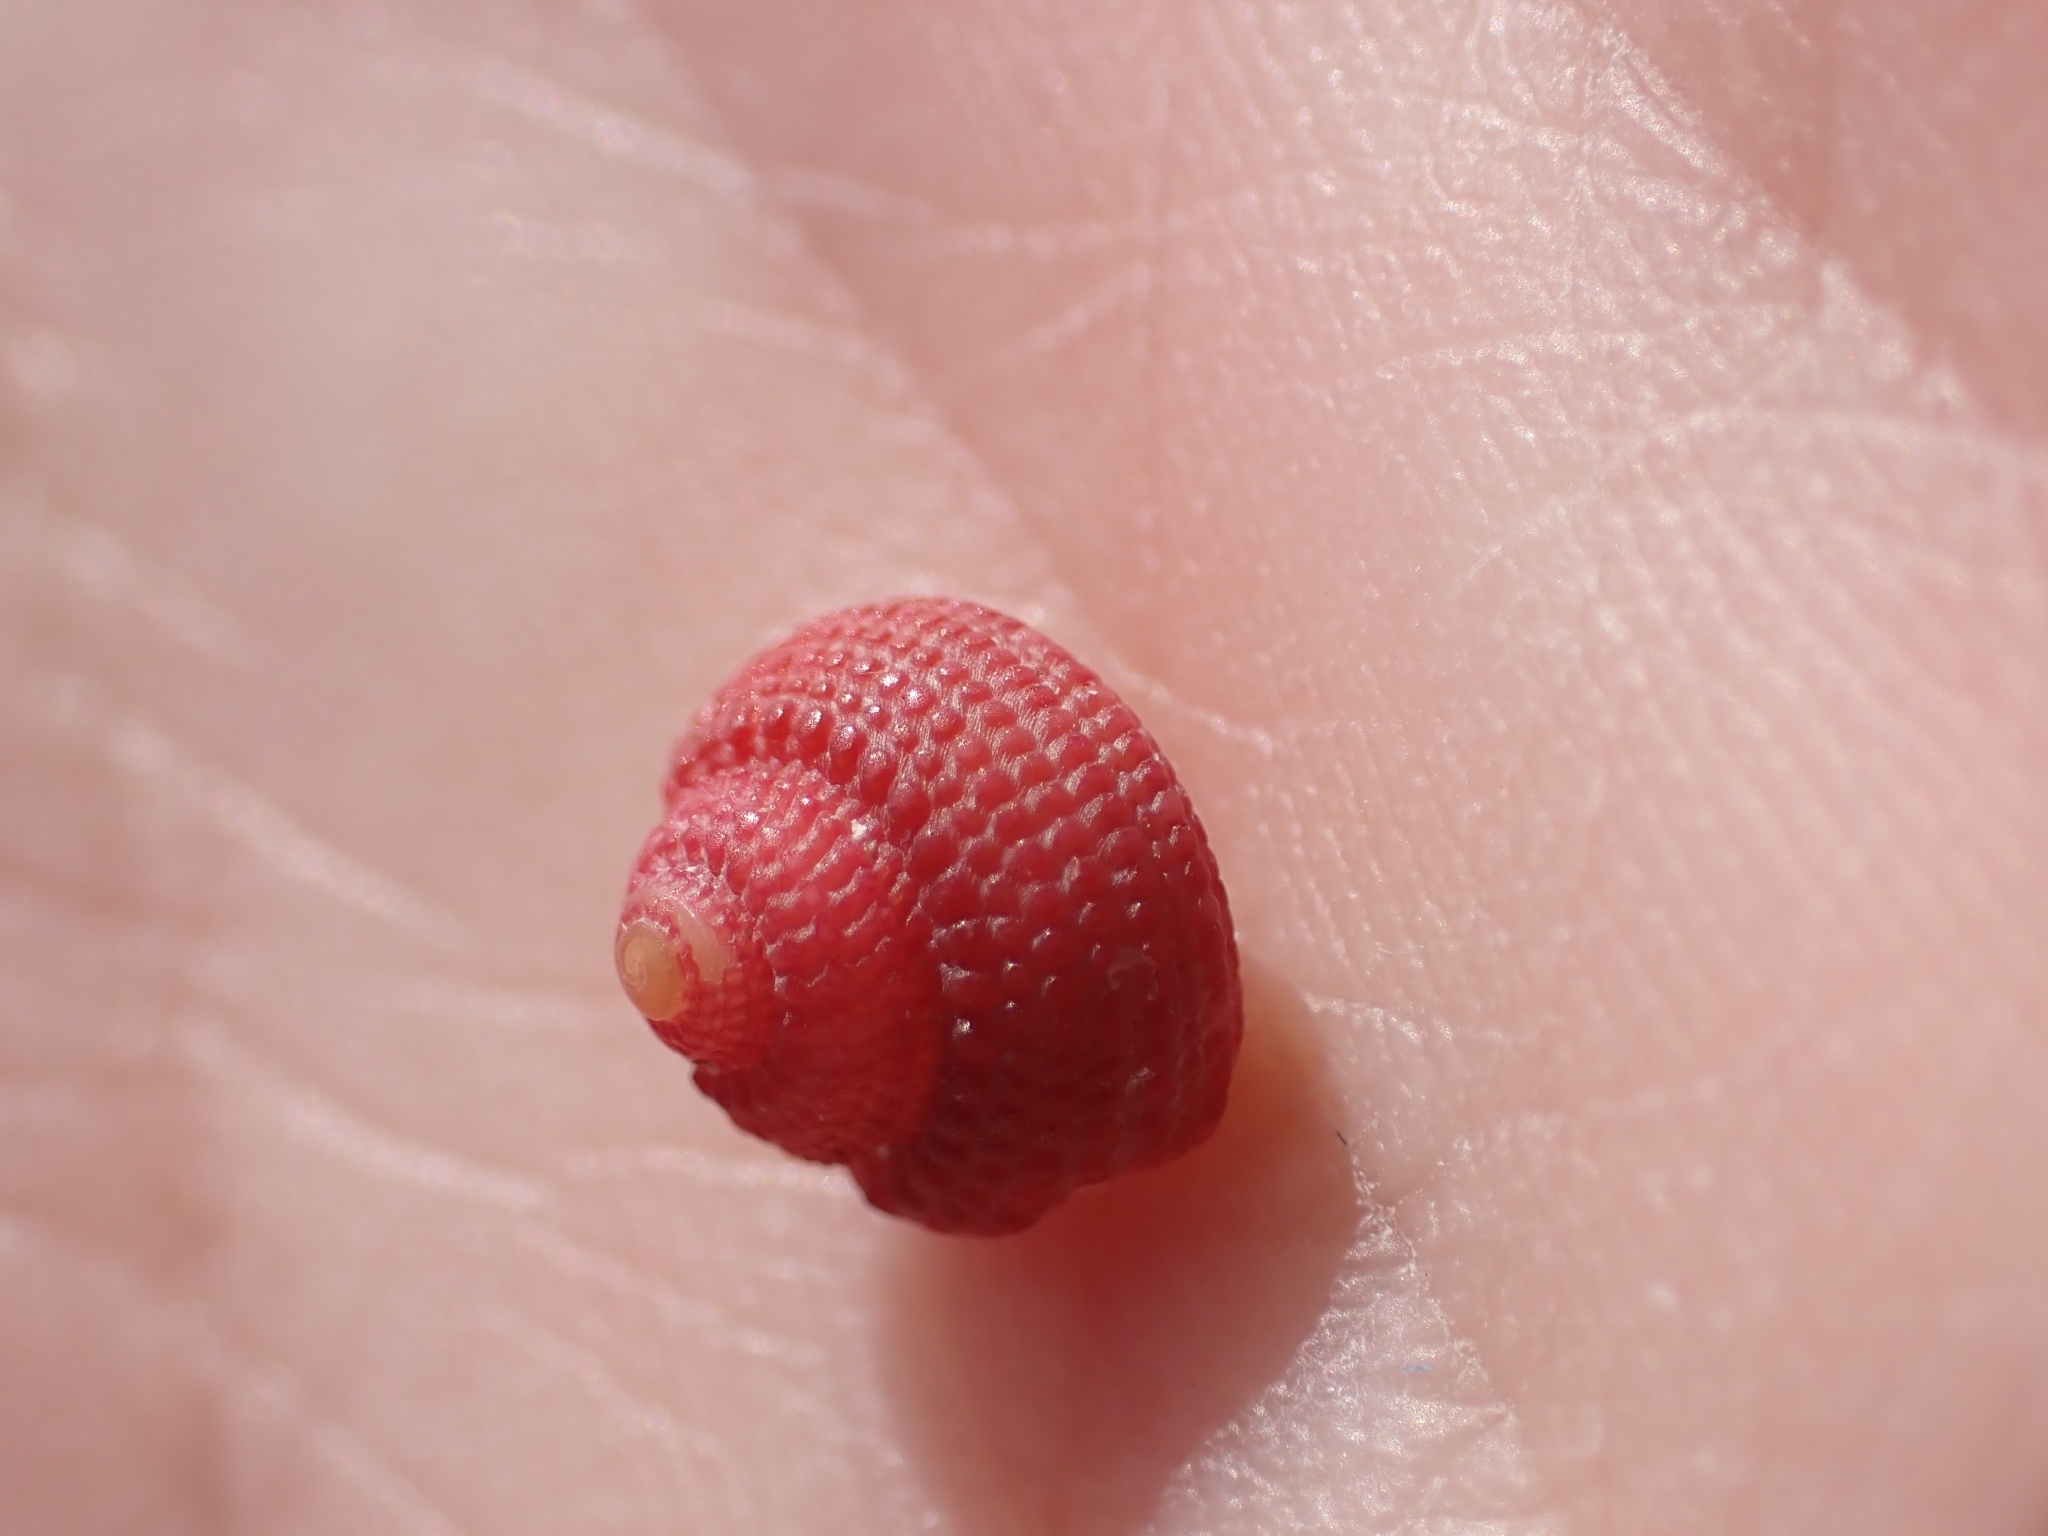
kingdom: Animalia
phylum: Mollusca
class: Gastropoda
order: Trochida
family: Trochidae
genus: Clanculus
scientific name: Clanculus corallinus
